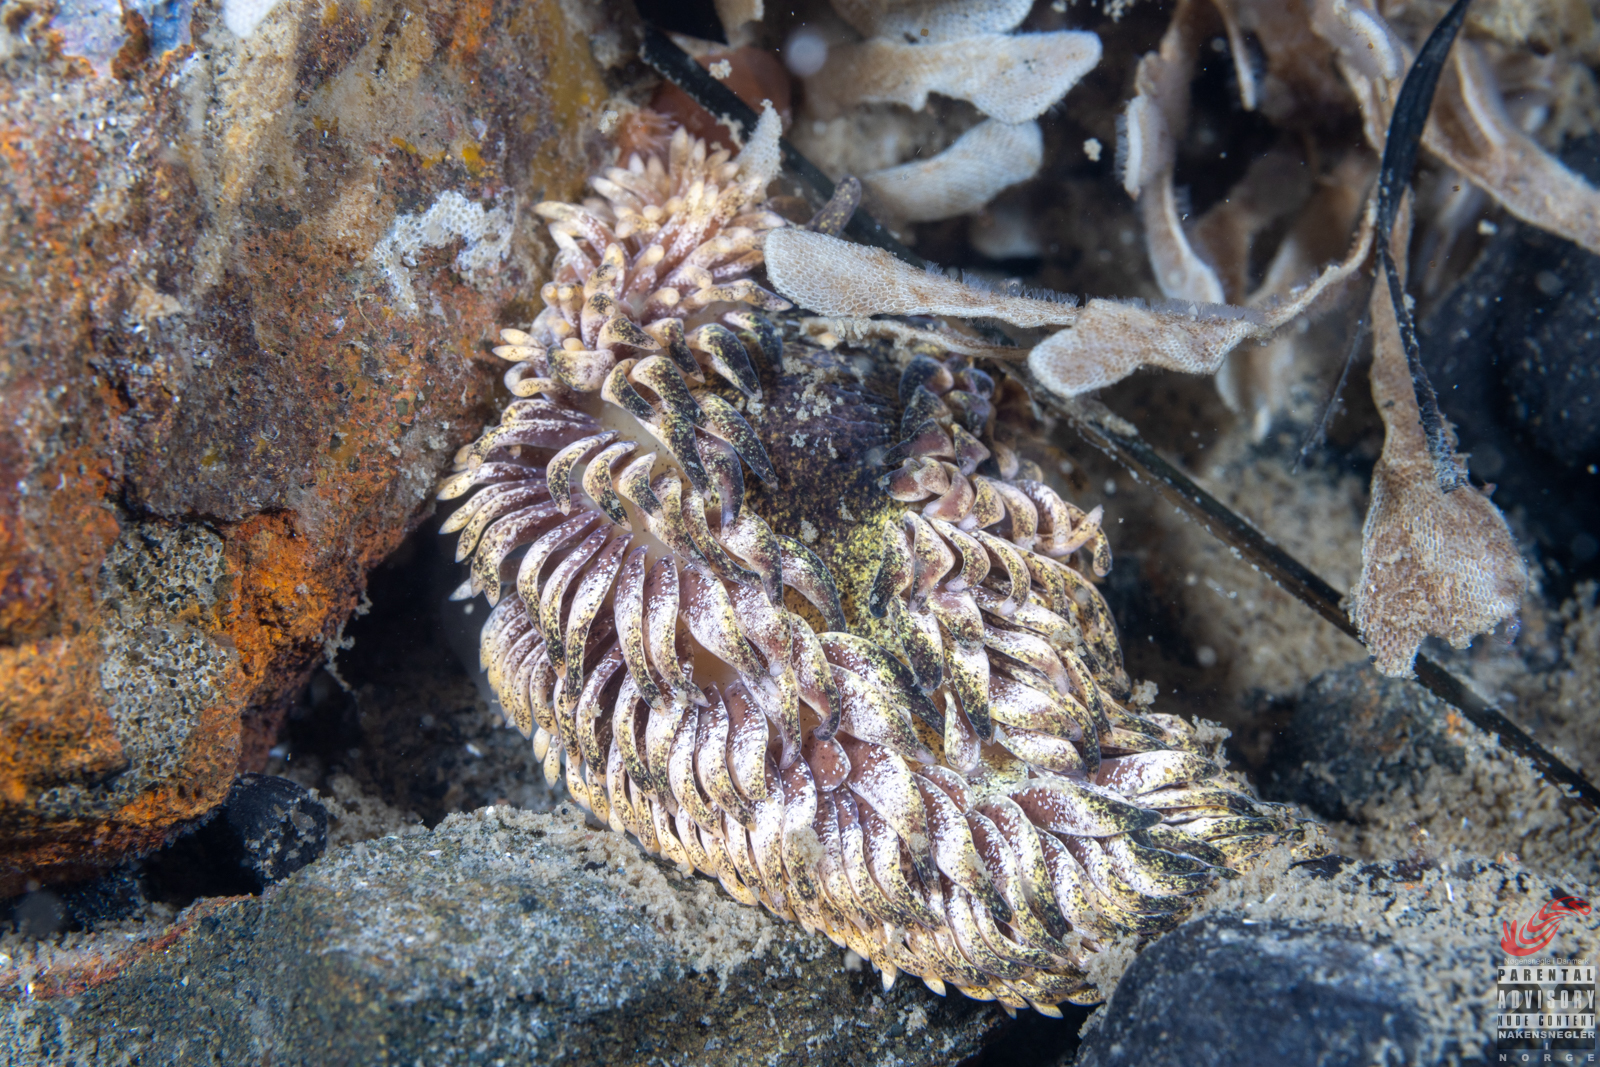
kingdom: Animalia
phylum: Mollusca
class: Gastropoda
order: Nudibranchia
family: Aeolidiidae
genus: Aeolidia
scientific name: Aeolidia papillosa
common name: Common grey sea slug
